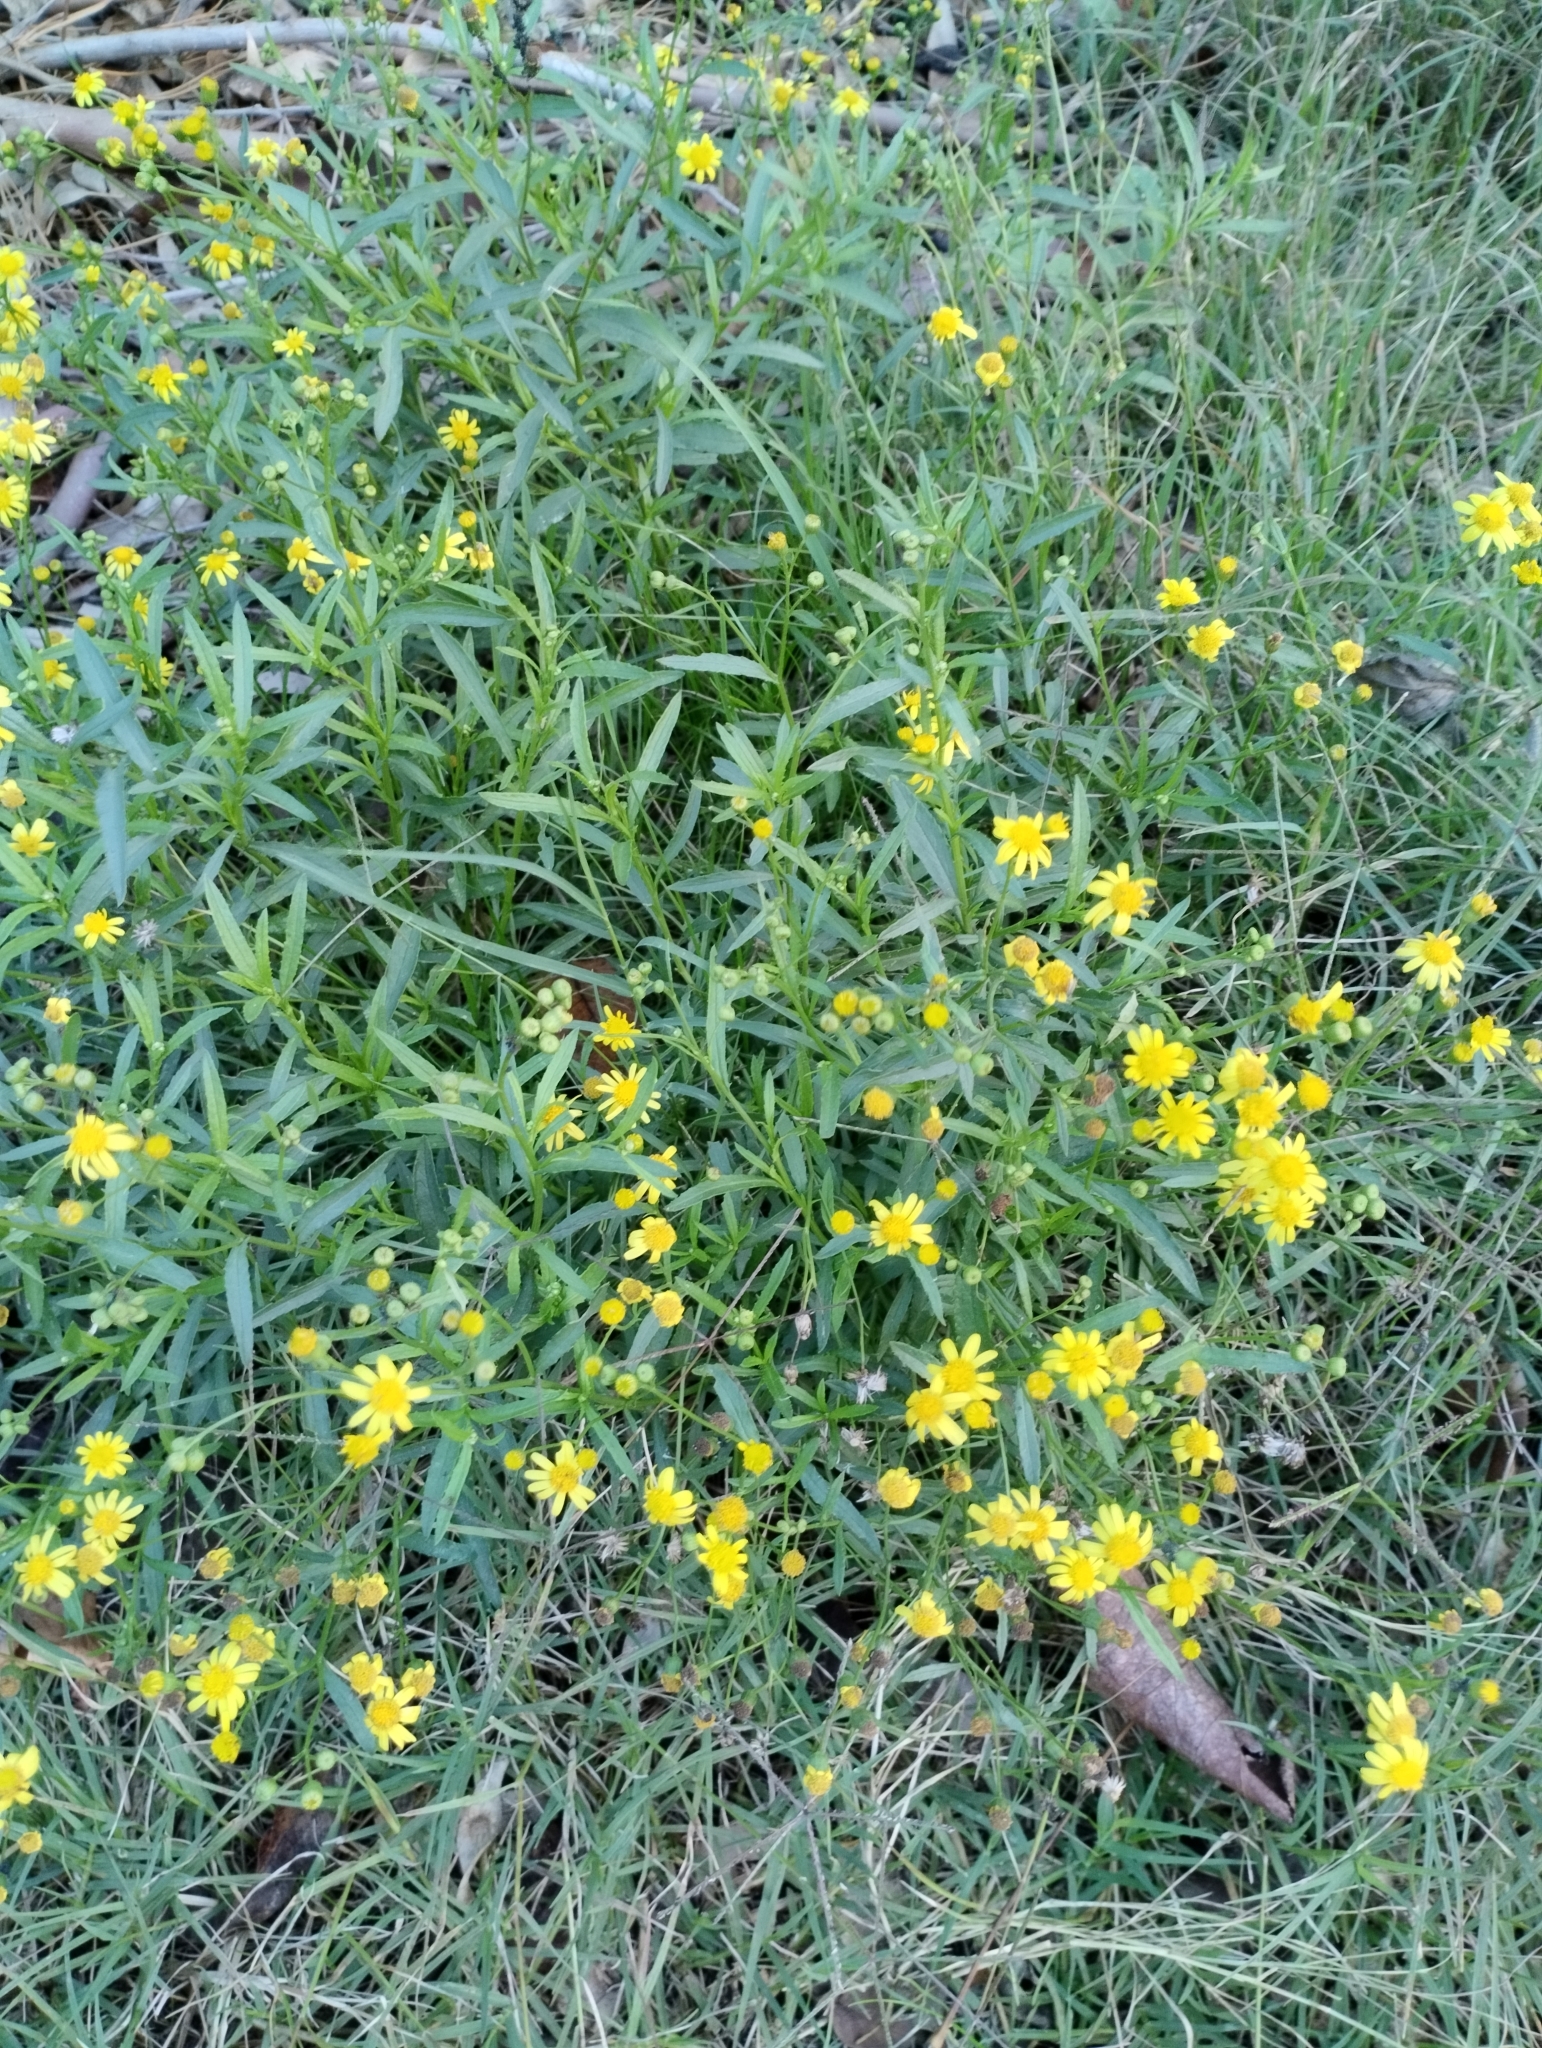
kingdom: Plantae
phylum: Tracheophyta
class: Magnoliopsida
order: Asterales
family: Asteraceae
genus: Senecio
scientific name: Senecio madagascariensis
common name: Madagascar ragwort
